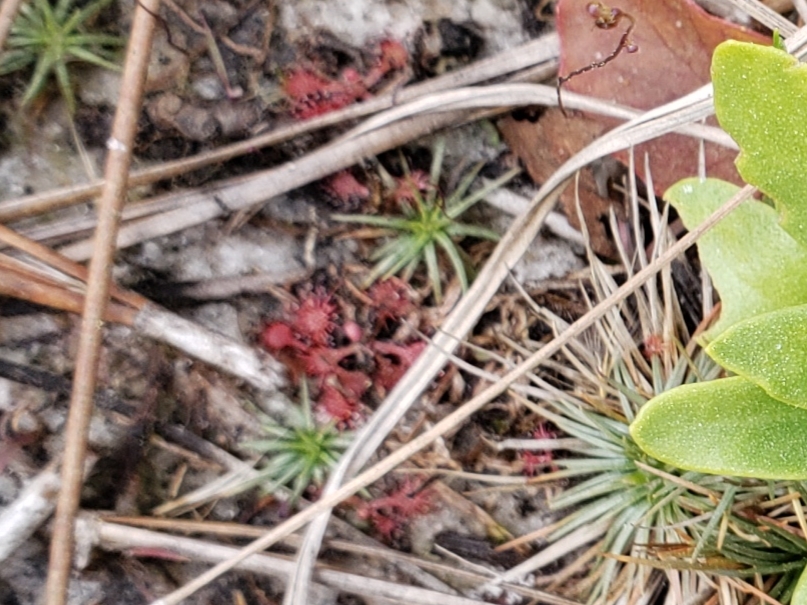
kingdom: Plantae
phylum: Tracheophyta
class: Magnoliopsida
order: Caryophyllales
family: Droseraceae
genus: Drosera
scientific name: Drosera capillaris
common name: Pink sundew
